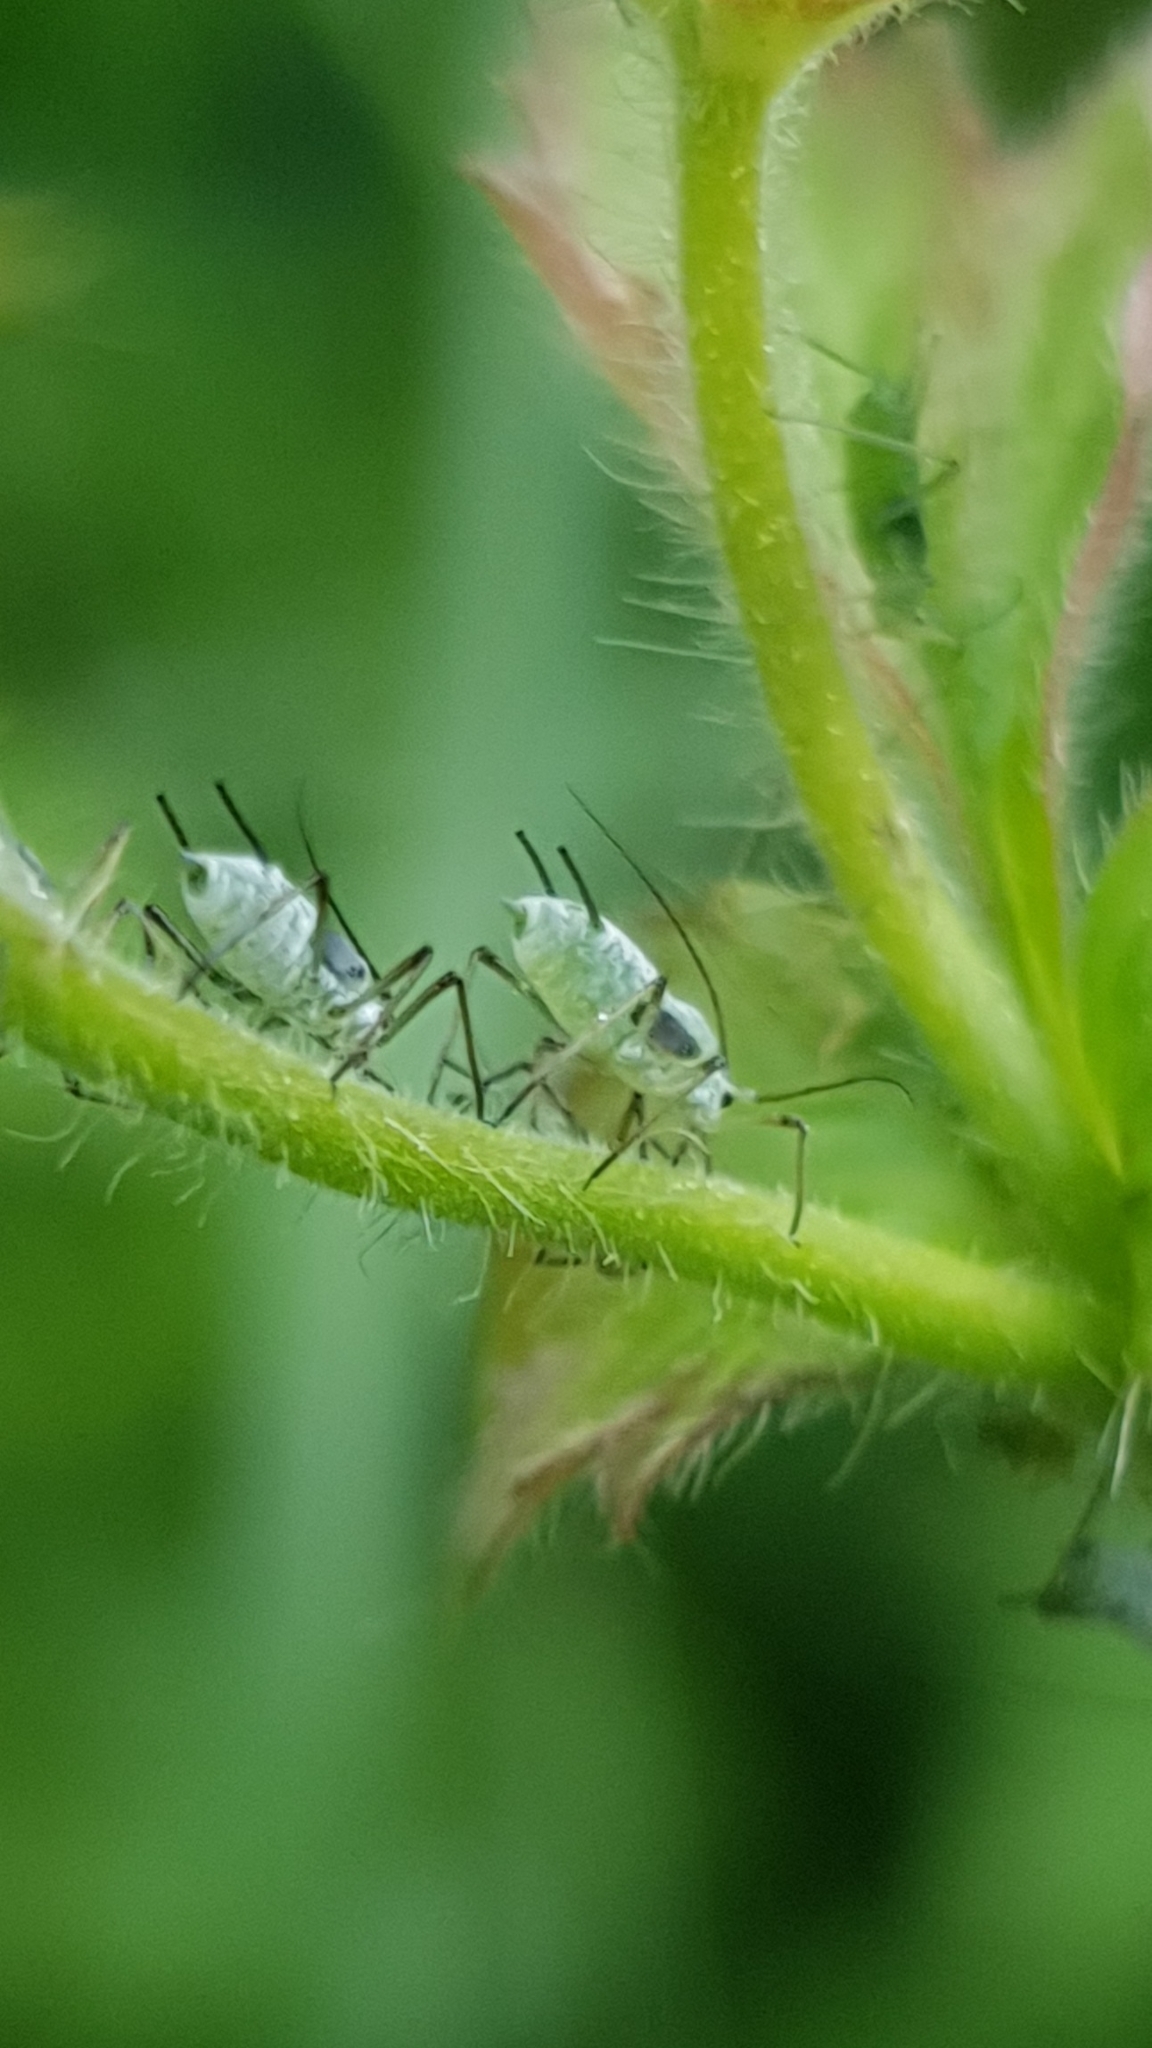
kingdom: Animalia
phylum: Arthropoda
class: Insecta
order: Hemiptera
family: Aphididae
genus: Macrosiphum
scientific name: Macrosiphum gei
